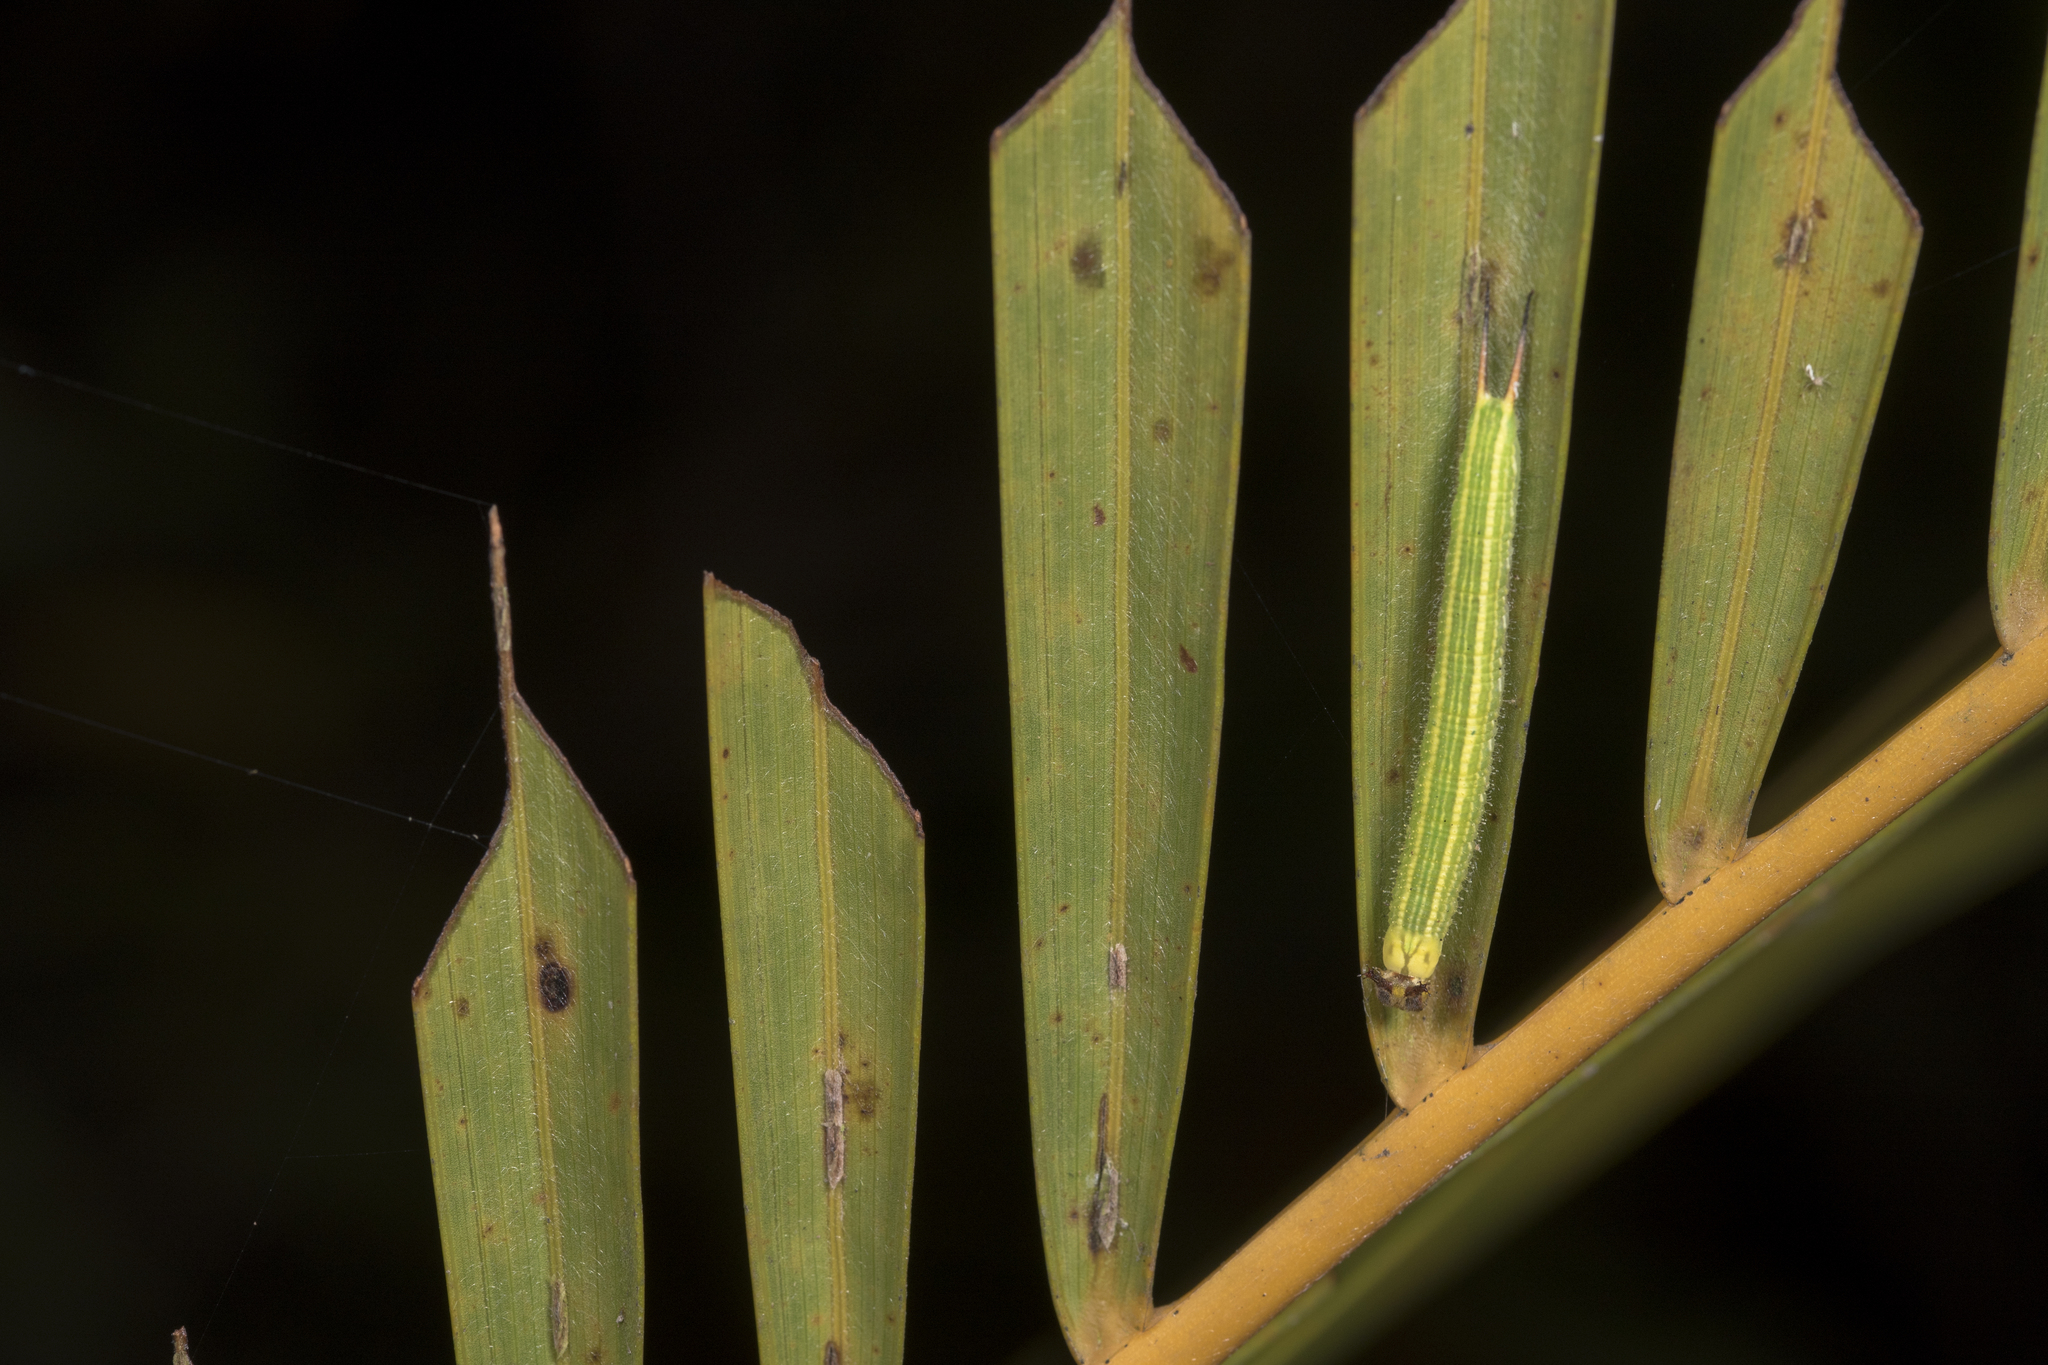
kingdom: Animalia
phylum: Arthropoda
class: Insecta
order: Lepidoptera
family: Nymphalidae
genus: Elymnias
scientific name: Elymnias hypermnestra
